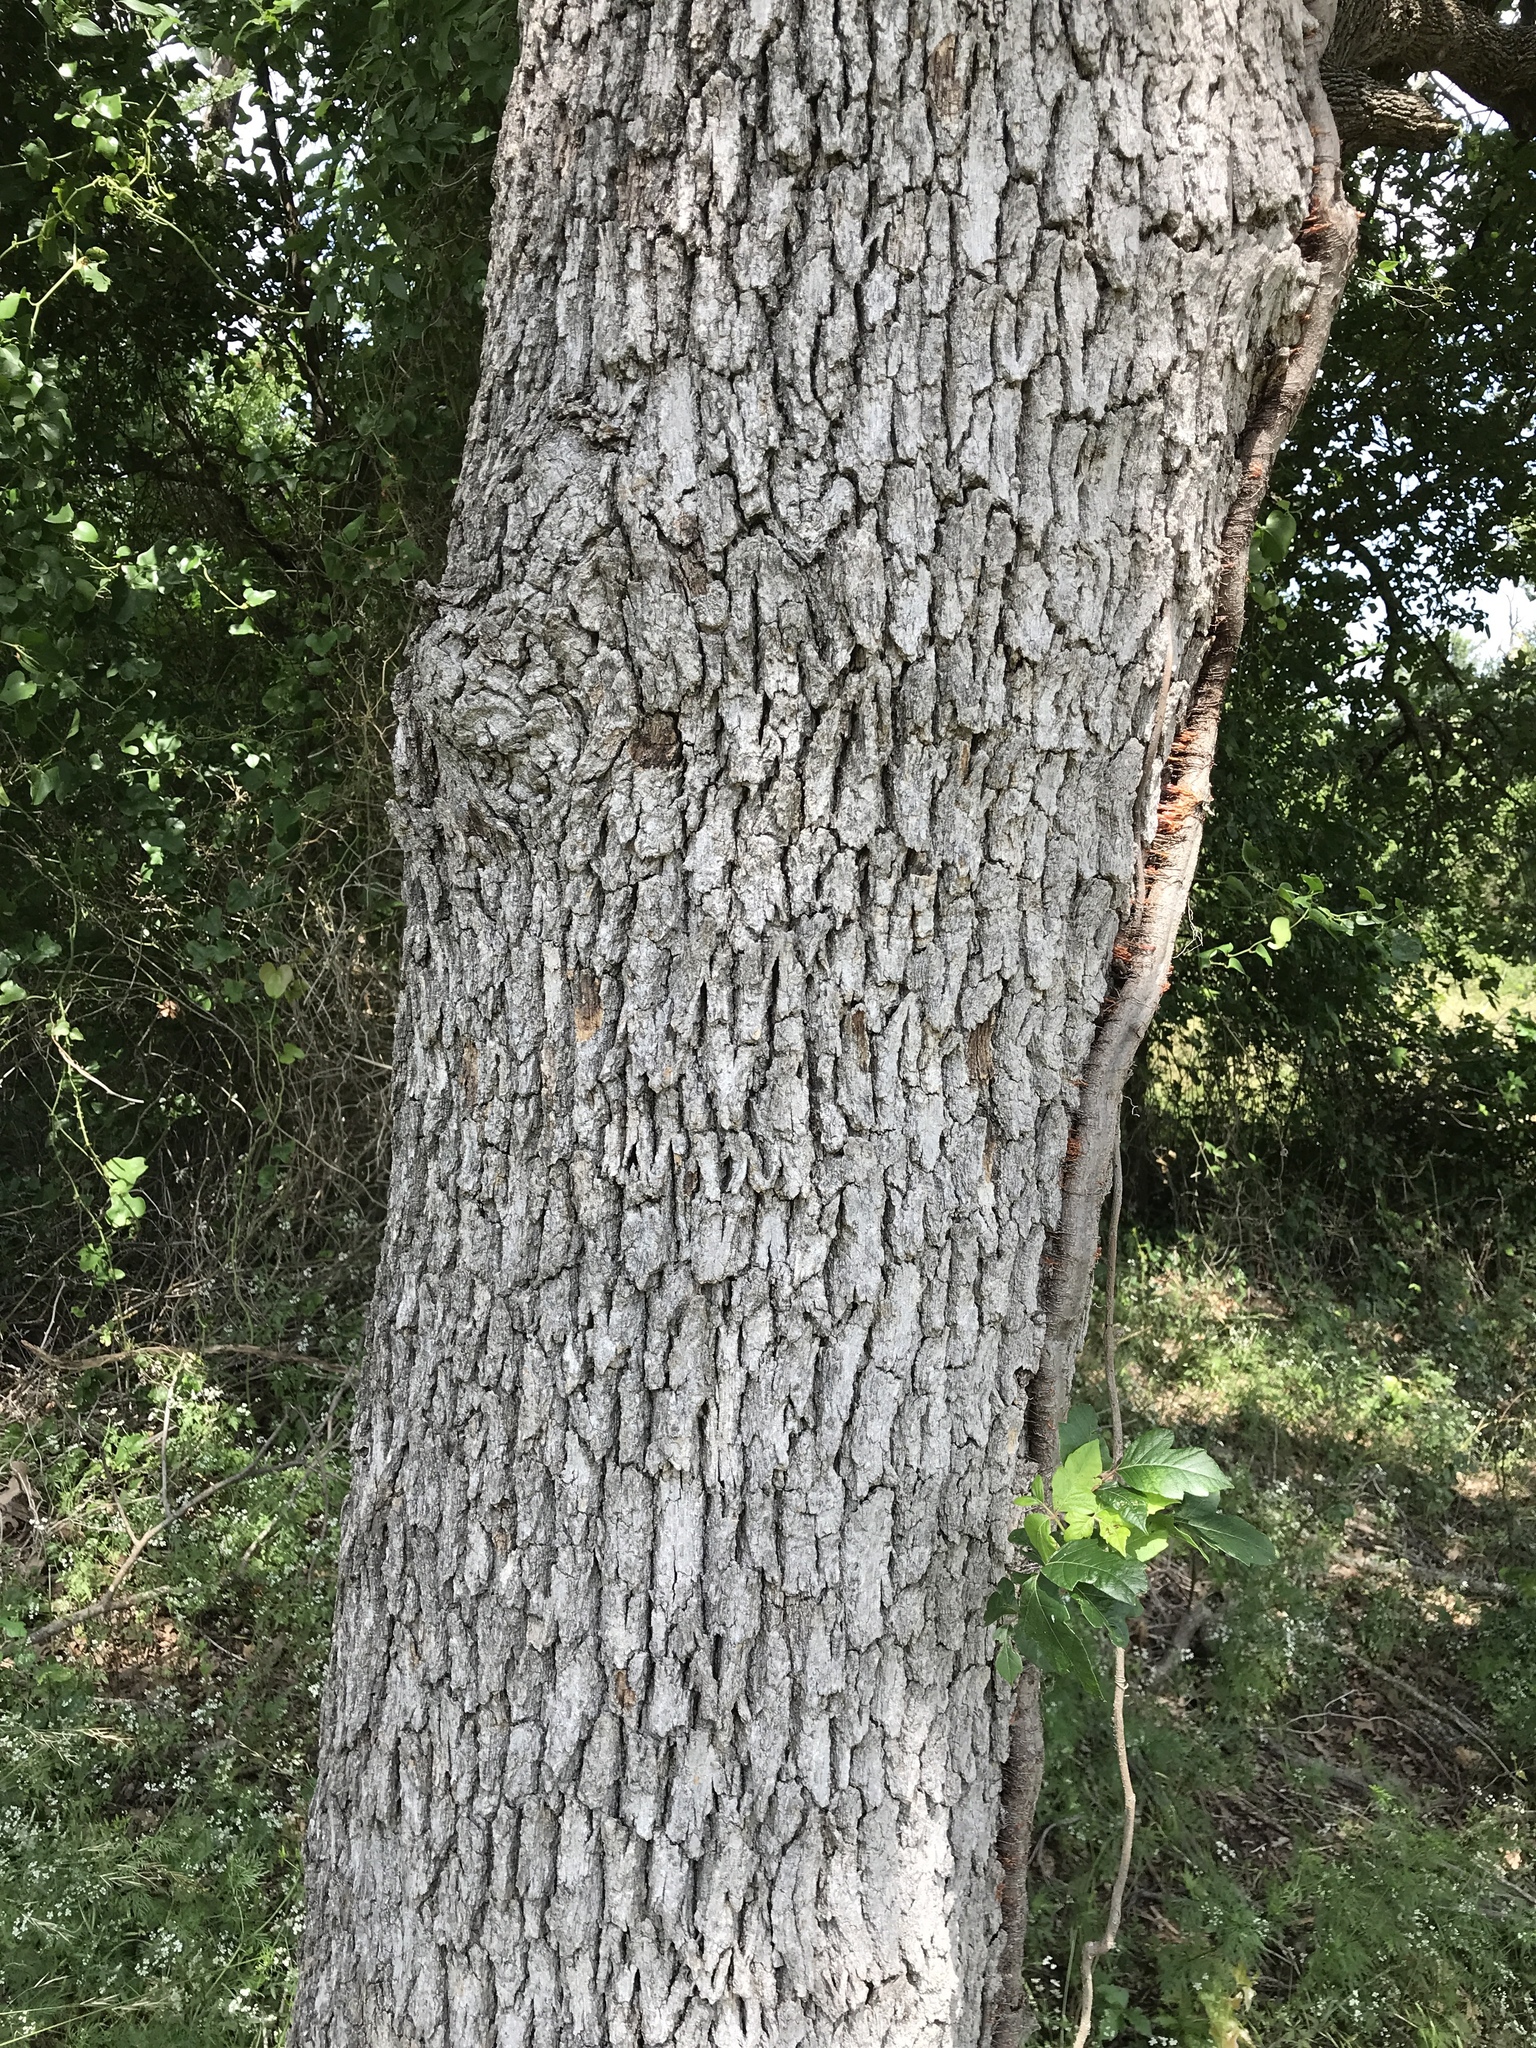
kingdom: Plantae
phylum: Tracheophyta
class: Magnoliopsida
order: Fagales
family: Fagaceae
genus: Quercus
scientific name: Quercus stellata
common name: Post oak
